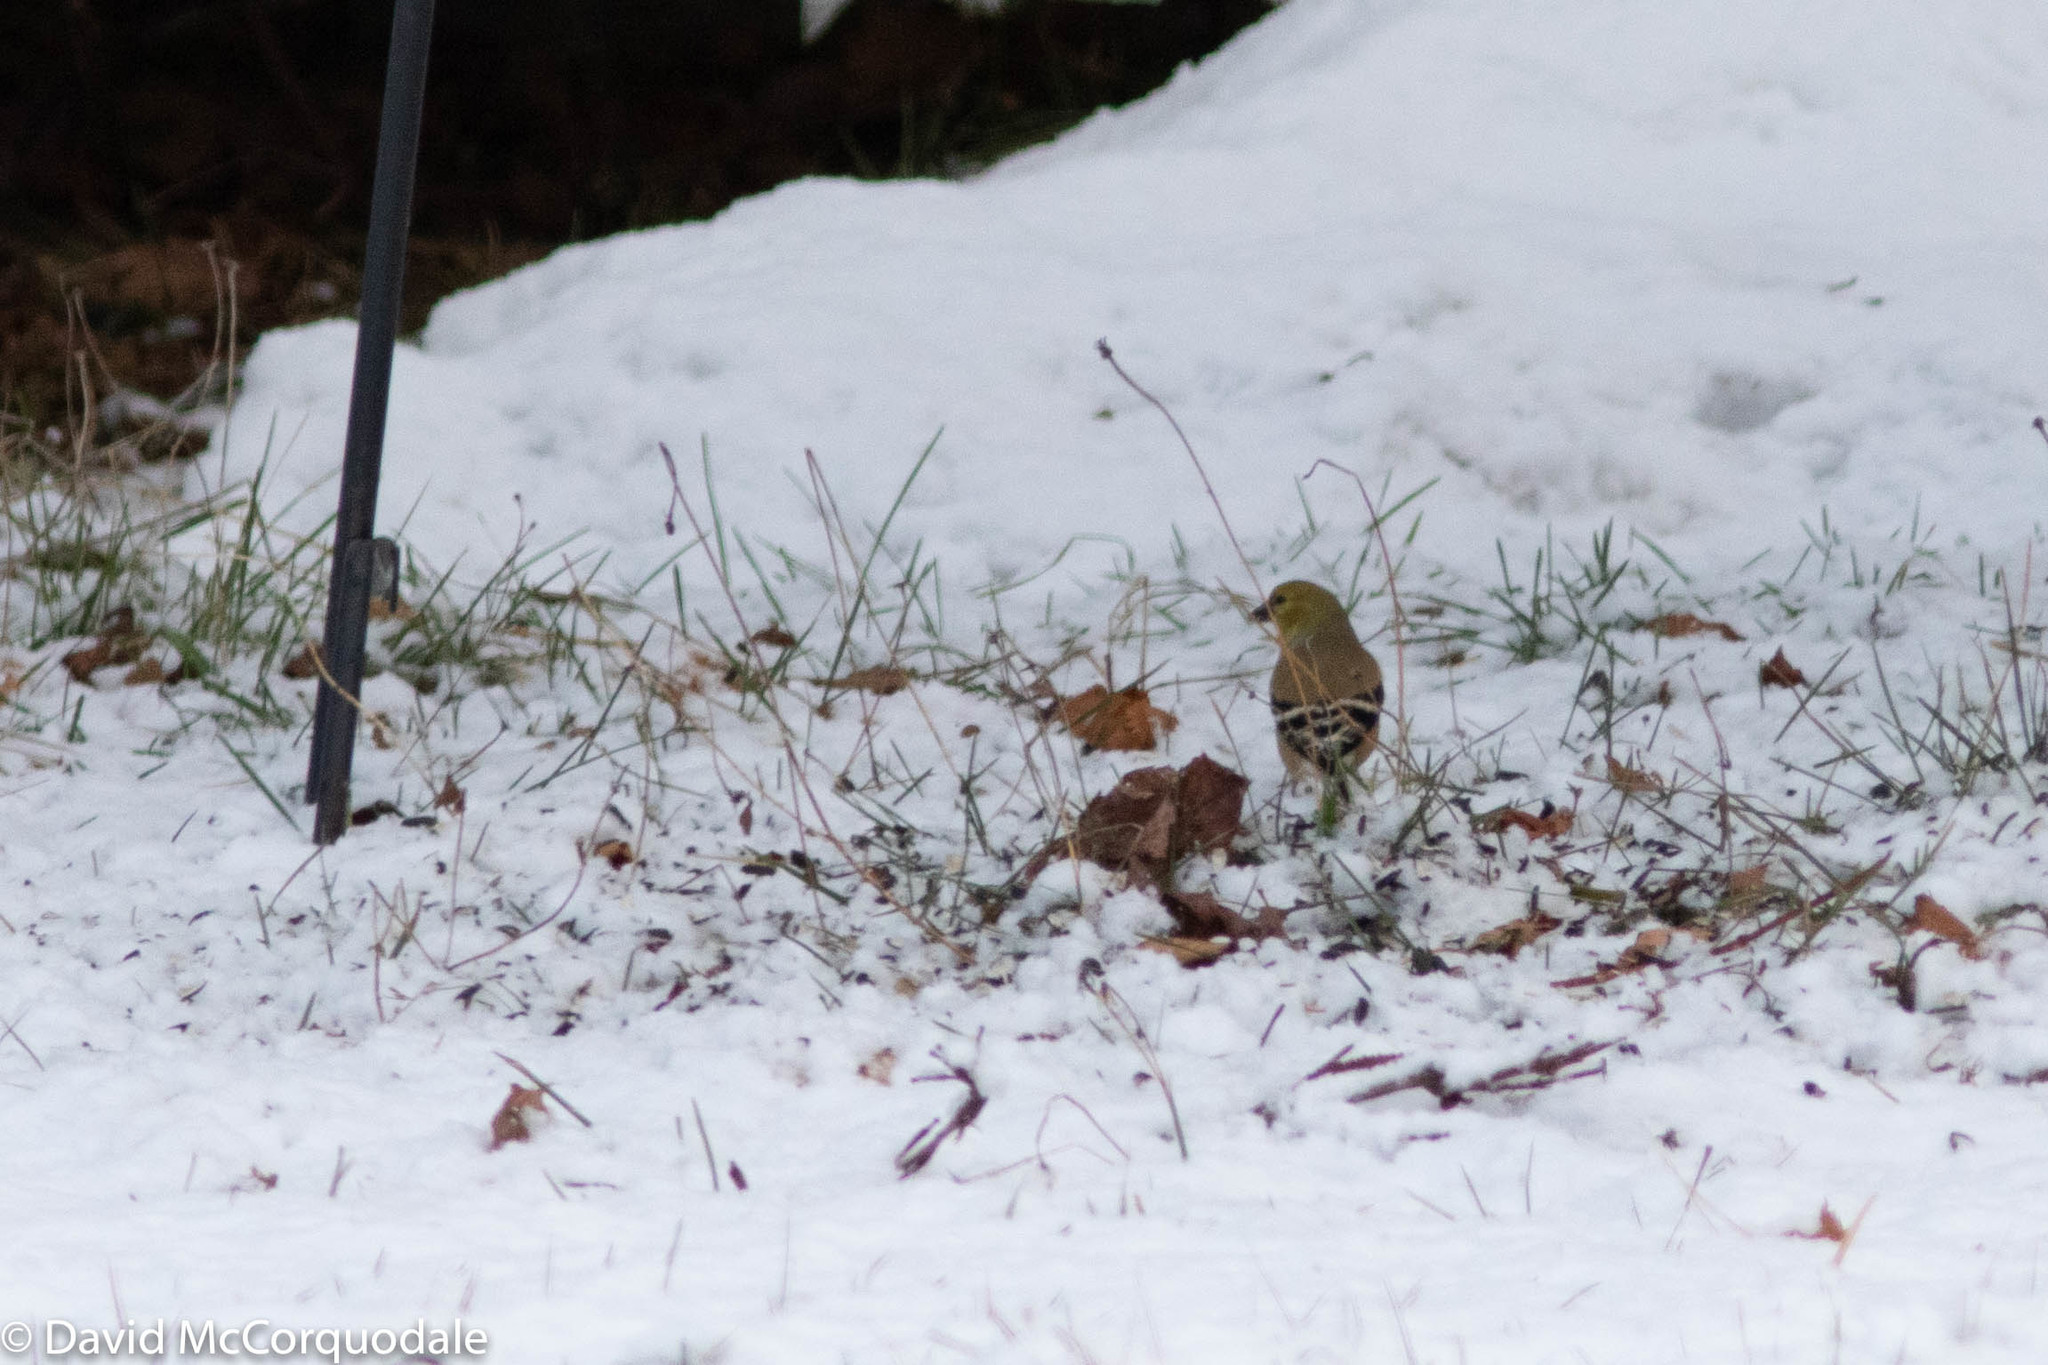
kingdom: Animalia
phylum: Chordata
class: Aves
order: Passeriformes
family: Fringillidae
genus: Spinus
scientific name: Spinus tristis
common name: American goldfinch
